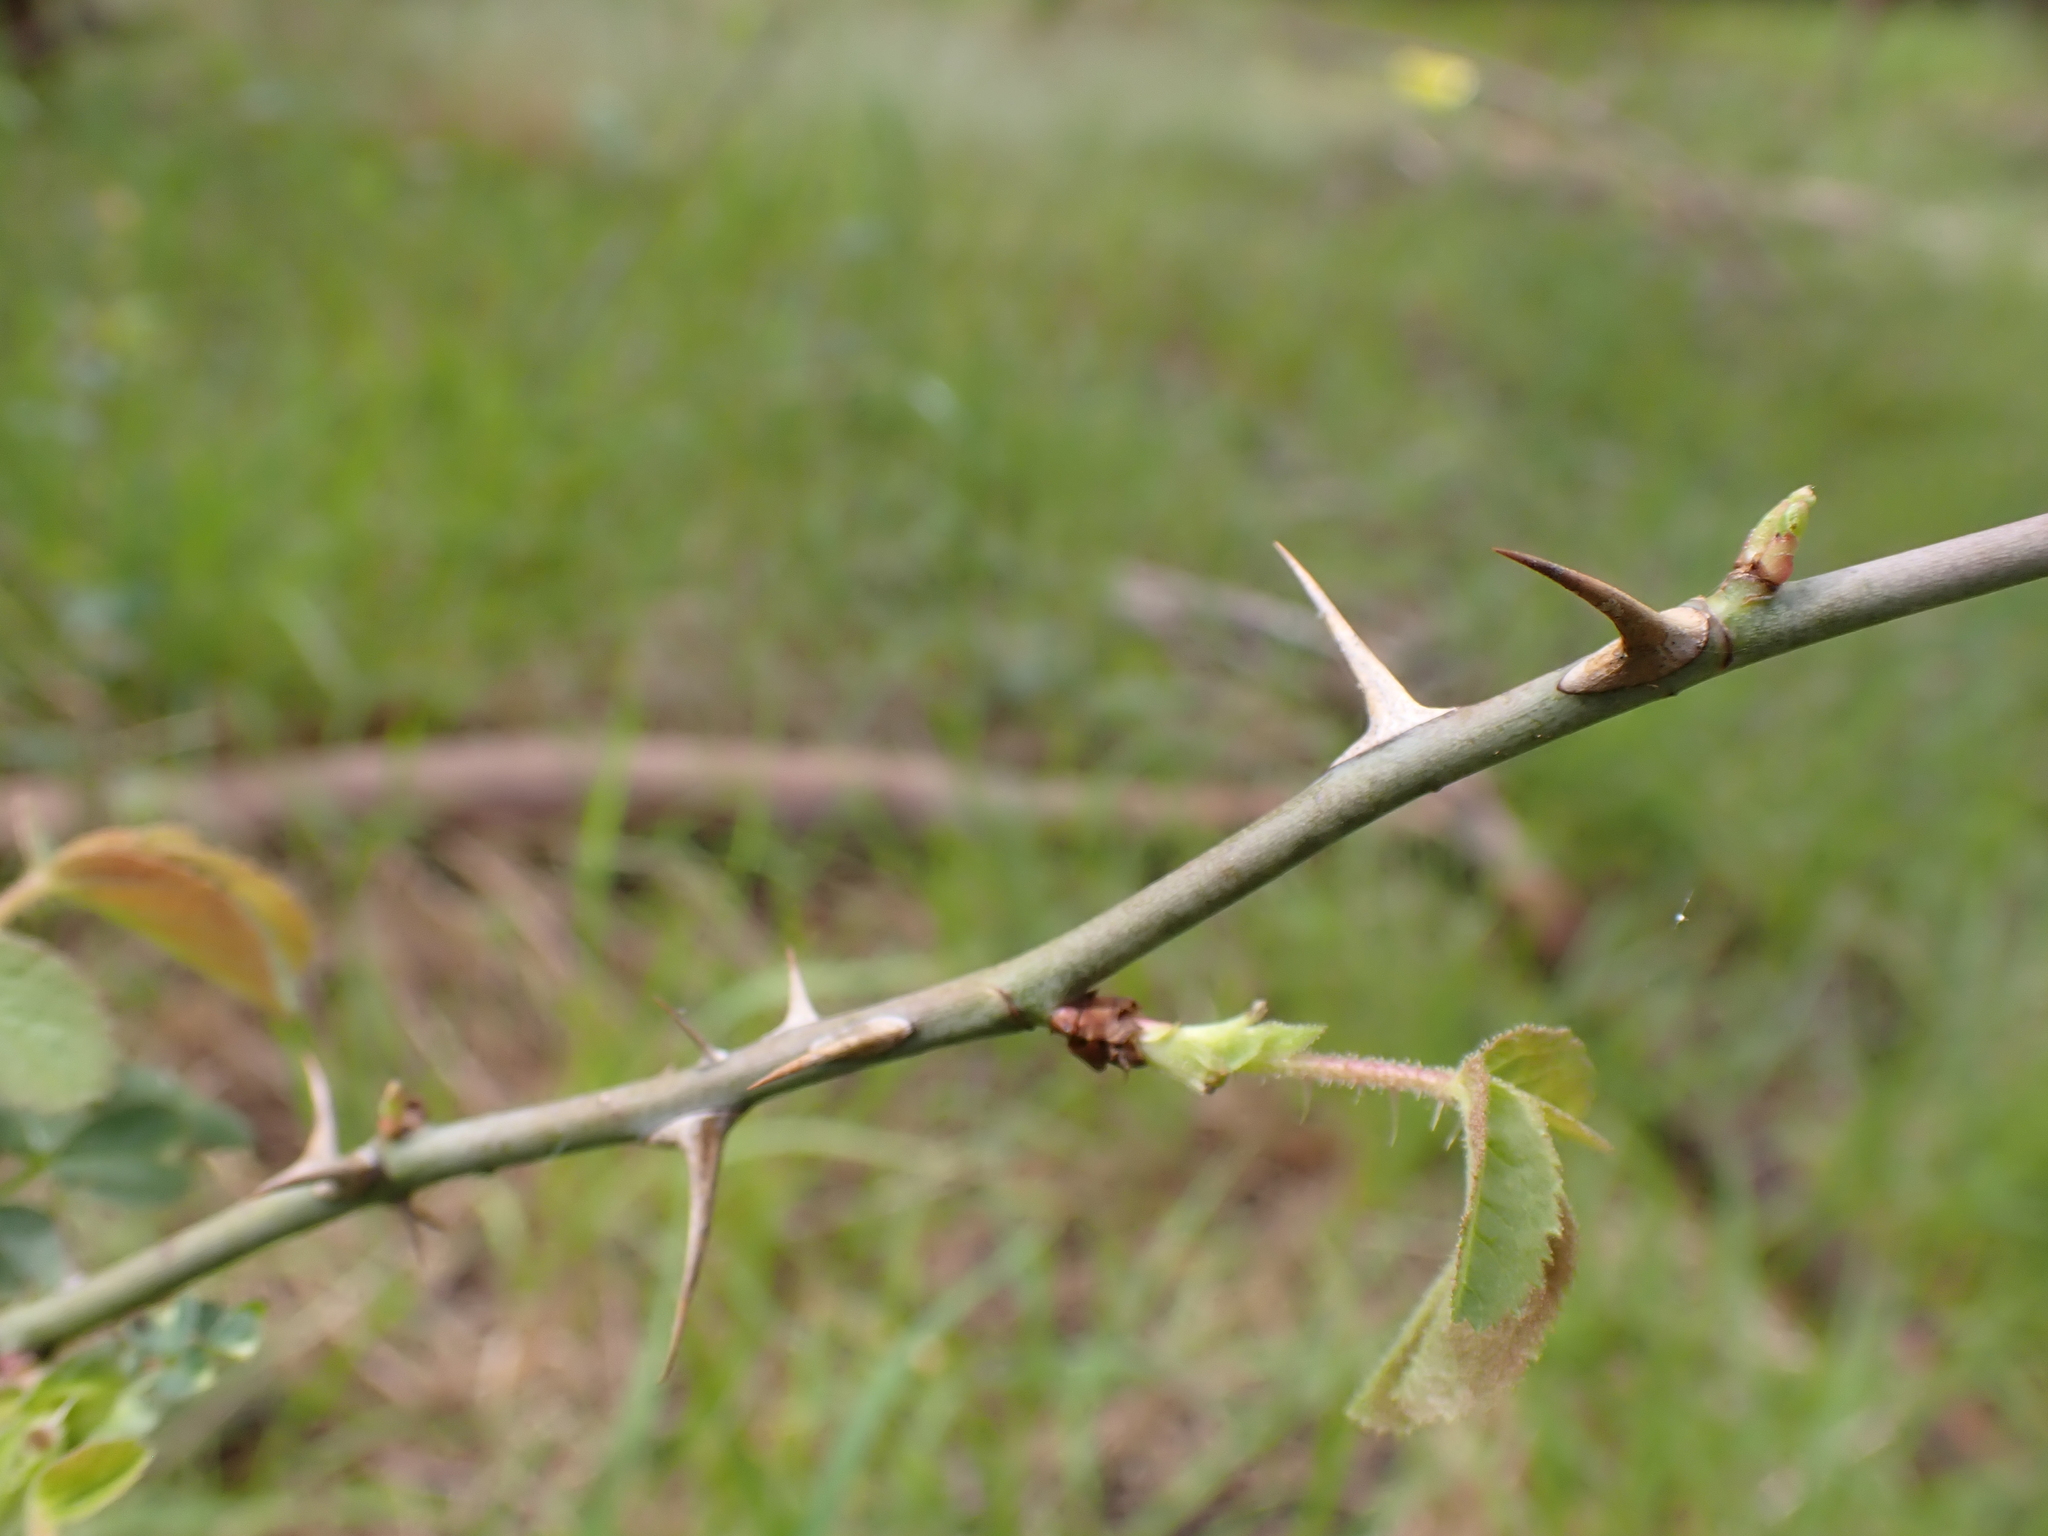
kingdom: Plantae
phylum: Tracheophyta
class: Magnoliopsida
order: Rosales
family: Rosaceae
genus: Rosa
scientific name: Rosa rubiginosa
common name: Sweet-briar
